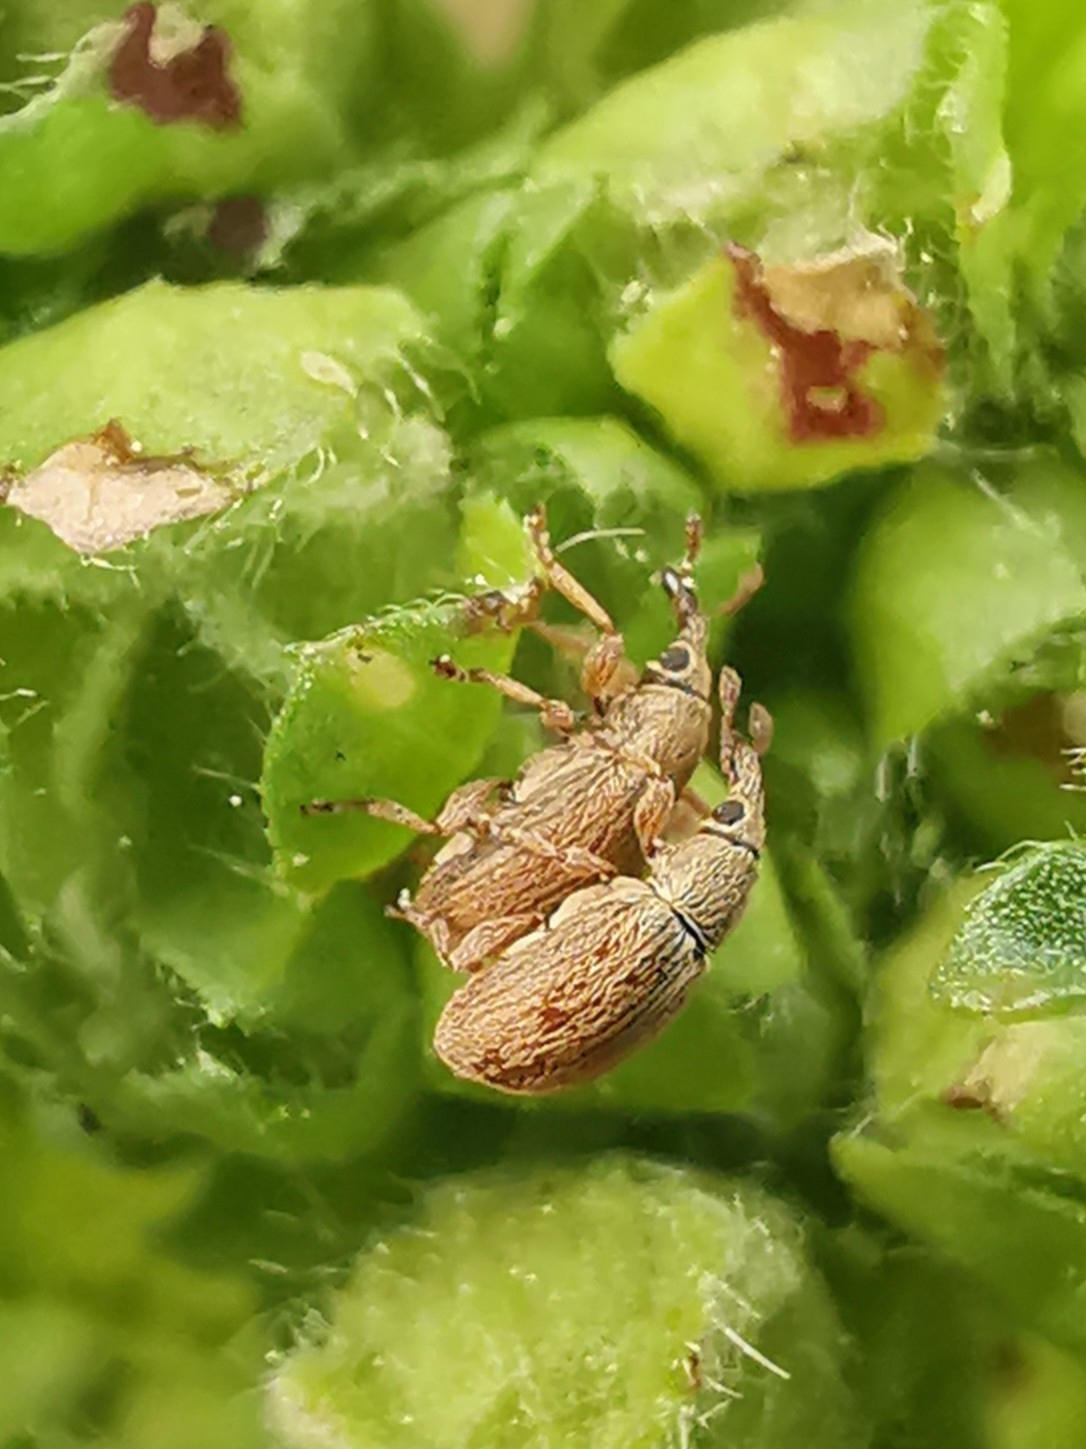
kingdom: Animalia
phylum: Arthropoda
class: Insecta
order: Coleoptera
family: Apionidae
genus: Malvapion
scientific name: Malvapion malvae
